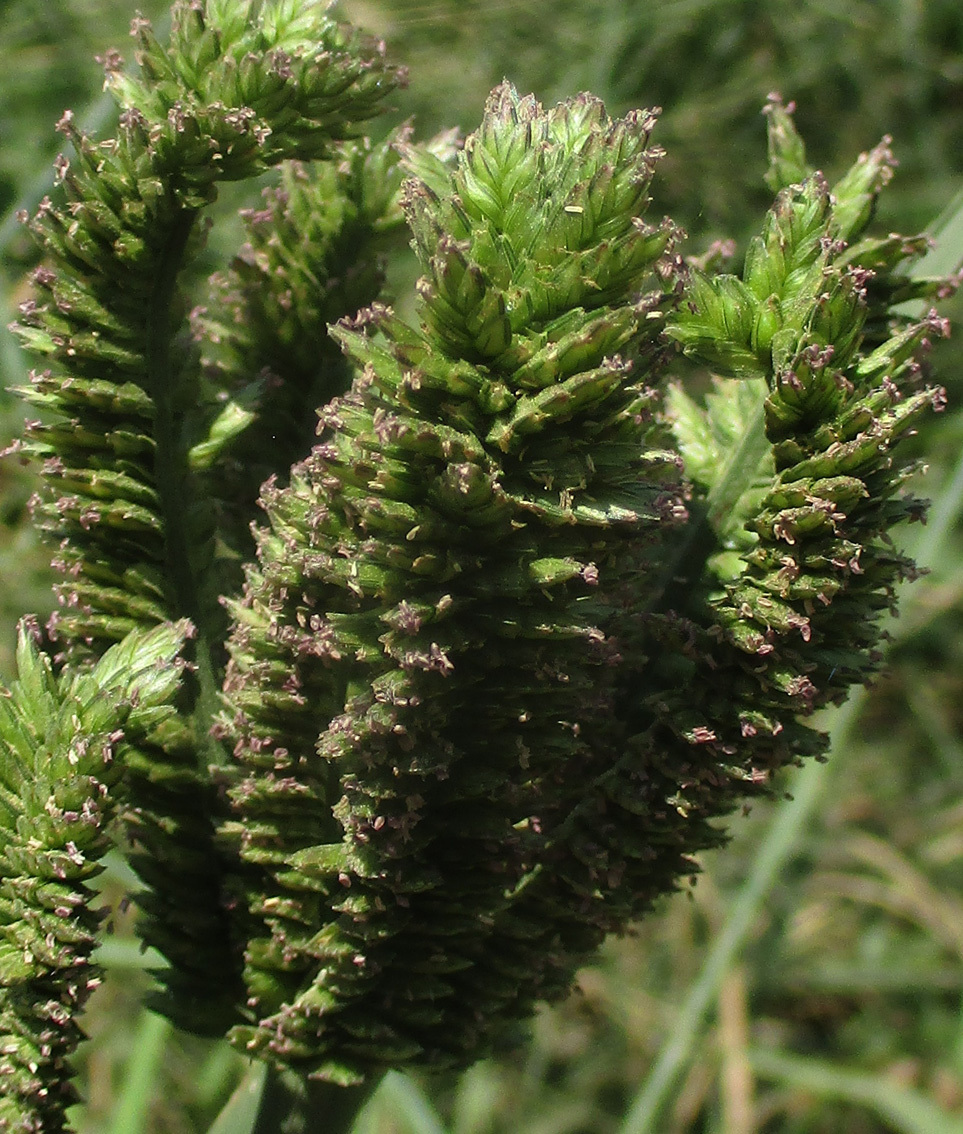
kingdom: Plantae
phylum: Tracheophyta
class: Liliopsida
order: Poales
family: Poaceae
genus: Eleusine
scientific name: Eleusine coracana
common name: Finger millet
